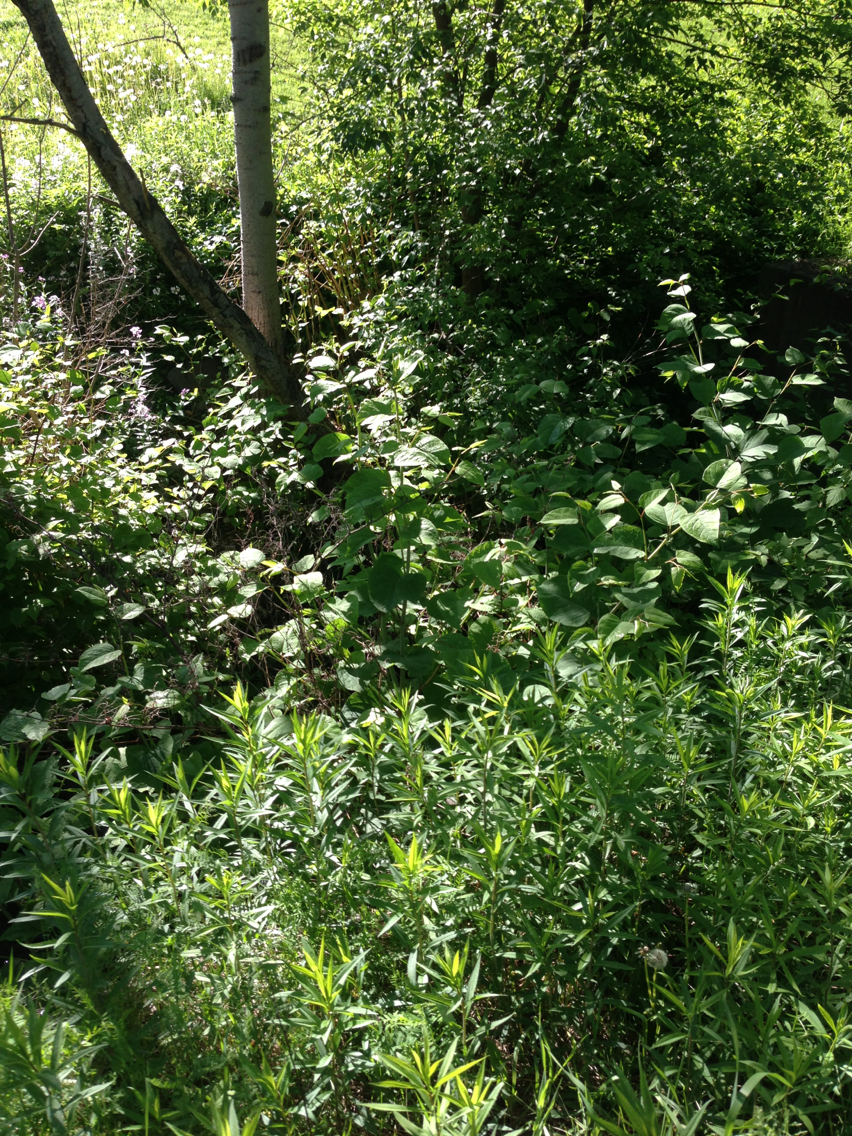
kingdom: Plantae
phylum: Tracheophyta
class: Magnoliopsida
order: Caryophyllales
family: Polygonaceae
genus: Reynoutria
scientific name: Reynoutria japonica
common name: Japanese knotweed
